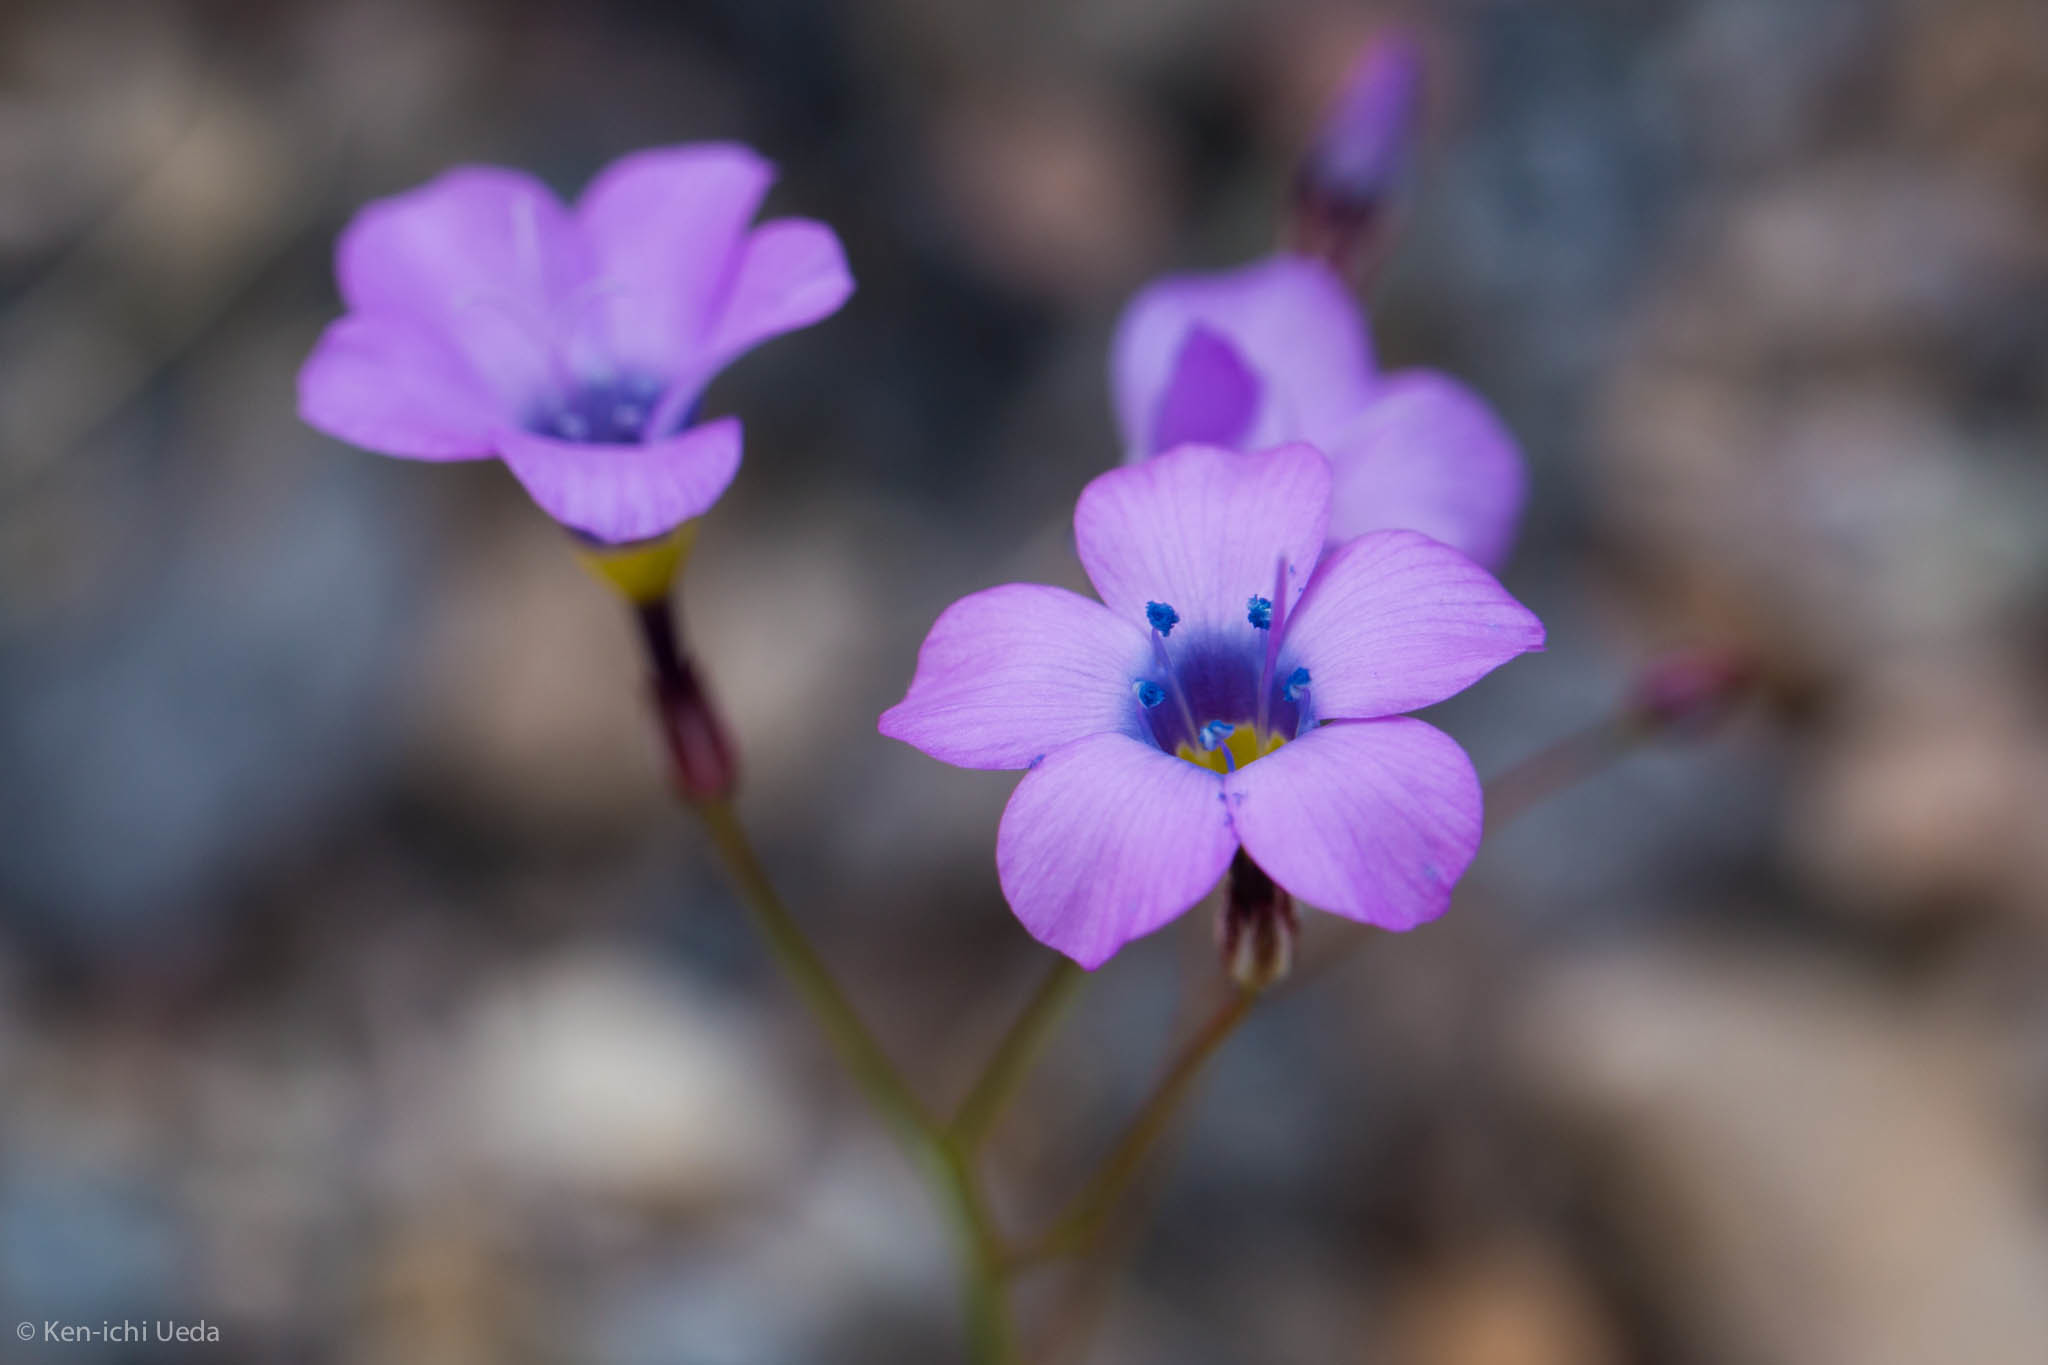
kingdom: Plantae
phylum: Tracheophyta
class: Magnoliopsida
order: Ericales
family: Polemoniaceae
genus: Gilia
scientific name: Gilia cana
